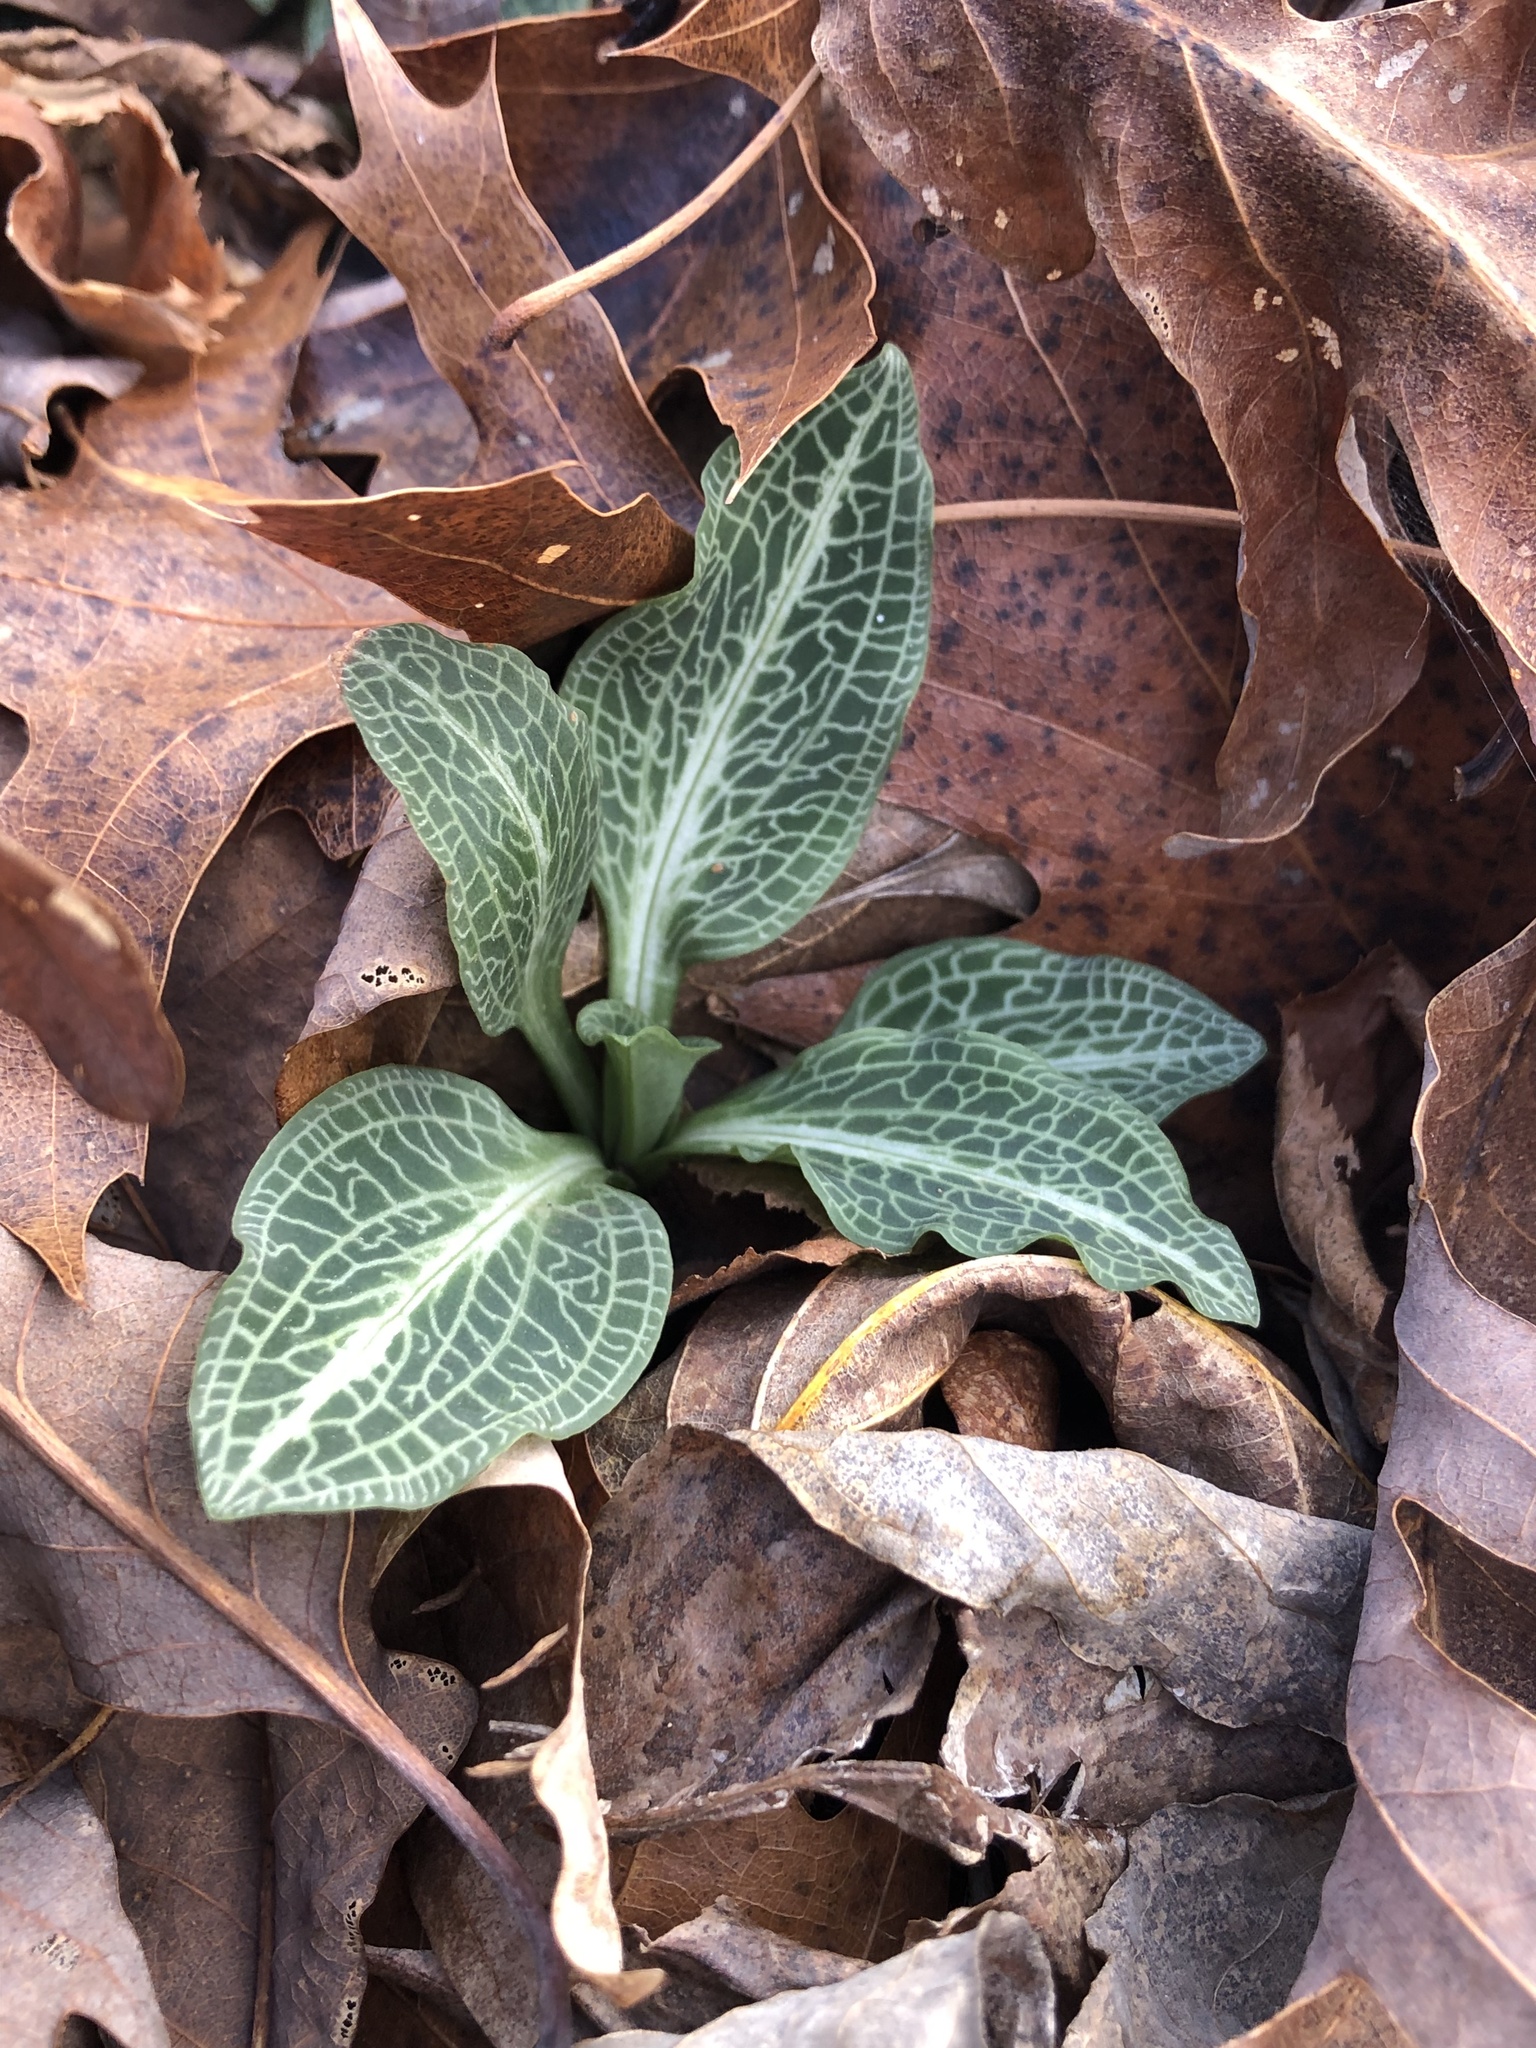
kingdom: Plantae
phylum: Tracheophyta
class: Liliopsida
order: Asparagales
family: Orchidaceae
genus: Goodyera
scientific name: Goodyera pubescens
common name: Downy rattlesnake-plantain
